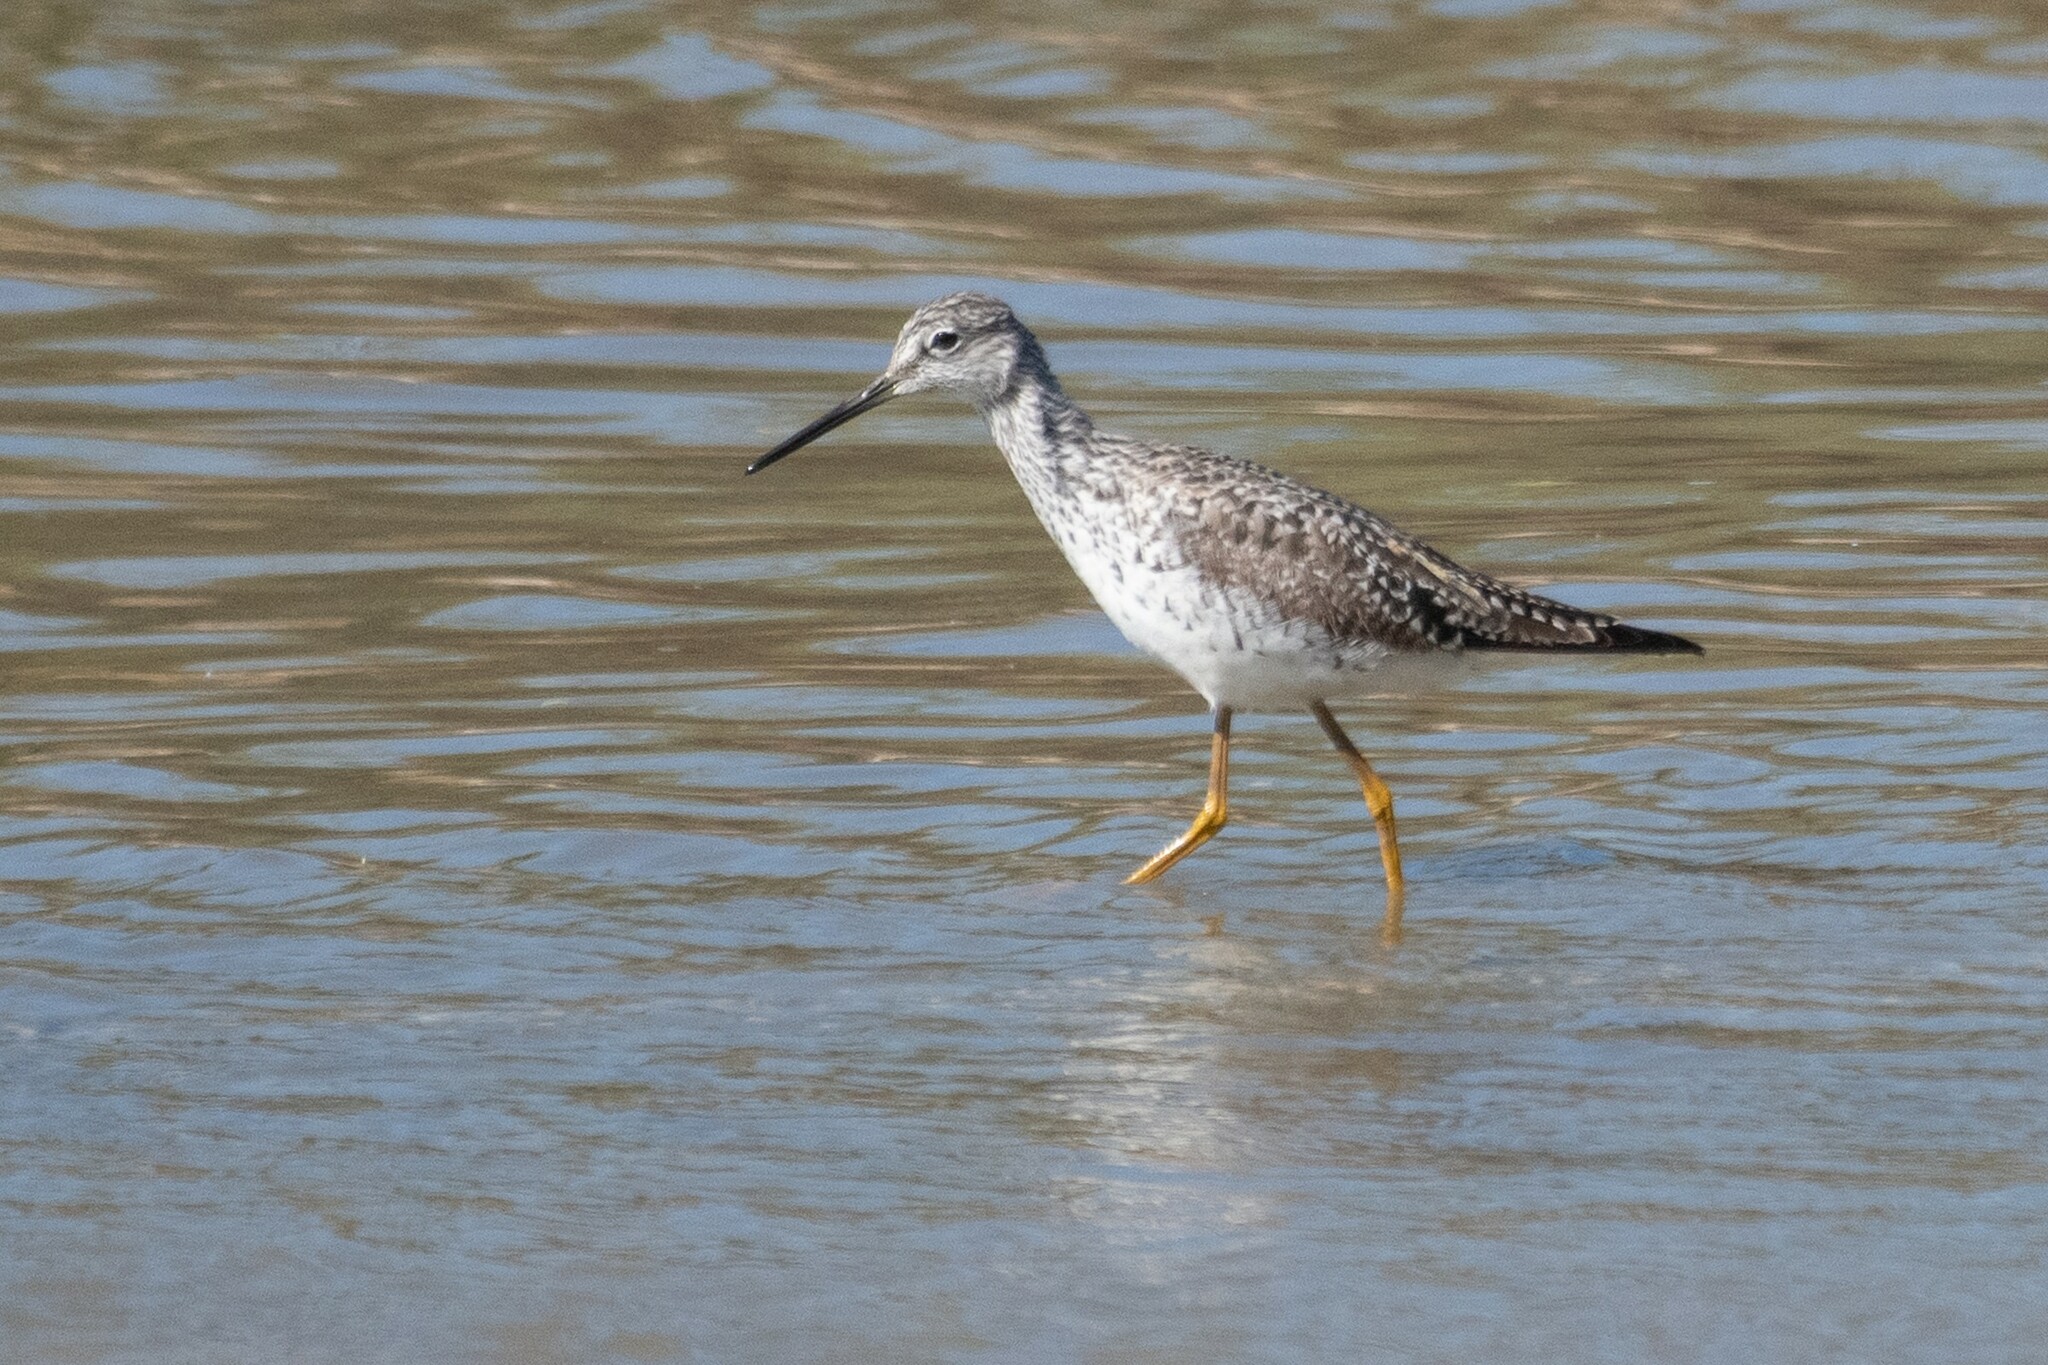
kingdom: Animalia
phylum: Chordata
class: Aves
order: Charadriiformes
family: Scolopacidae
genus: Tringa
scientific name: Tringa melanoleuca
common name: Greater yellowlegs
